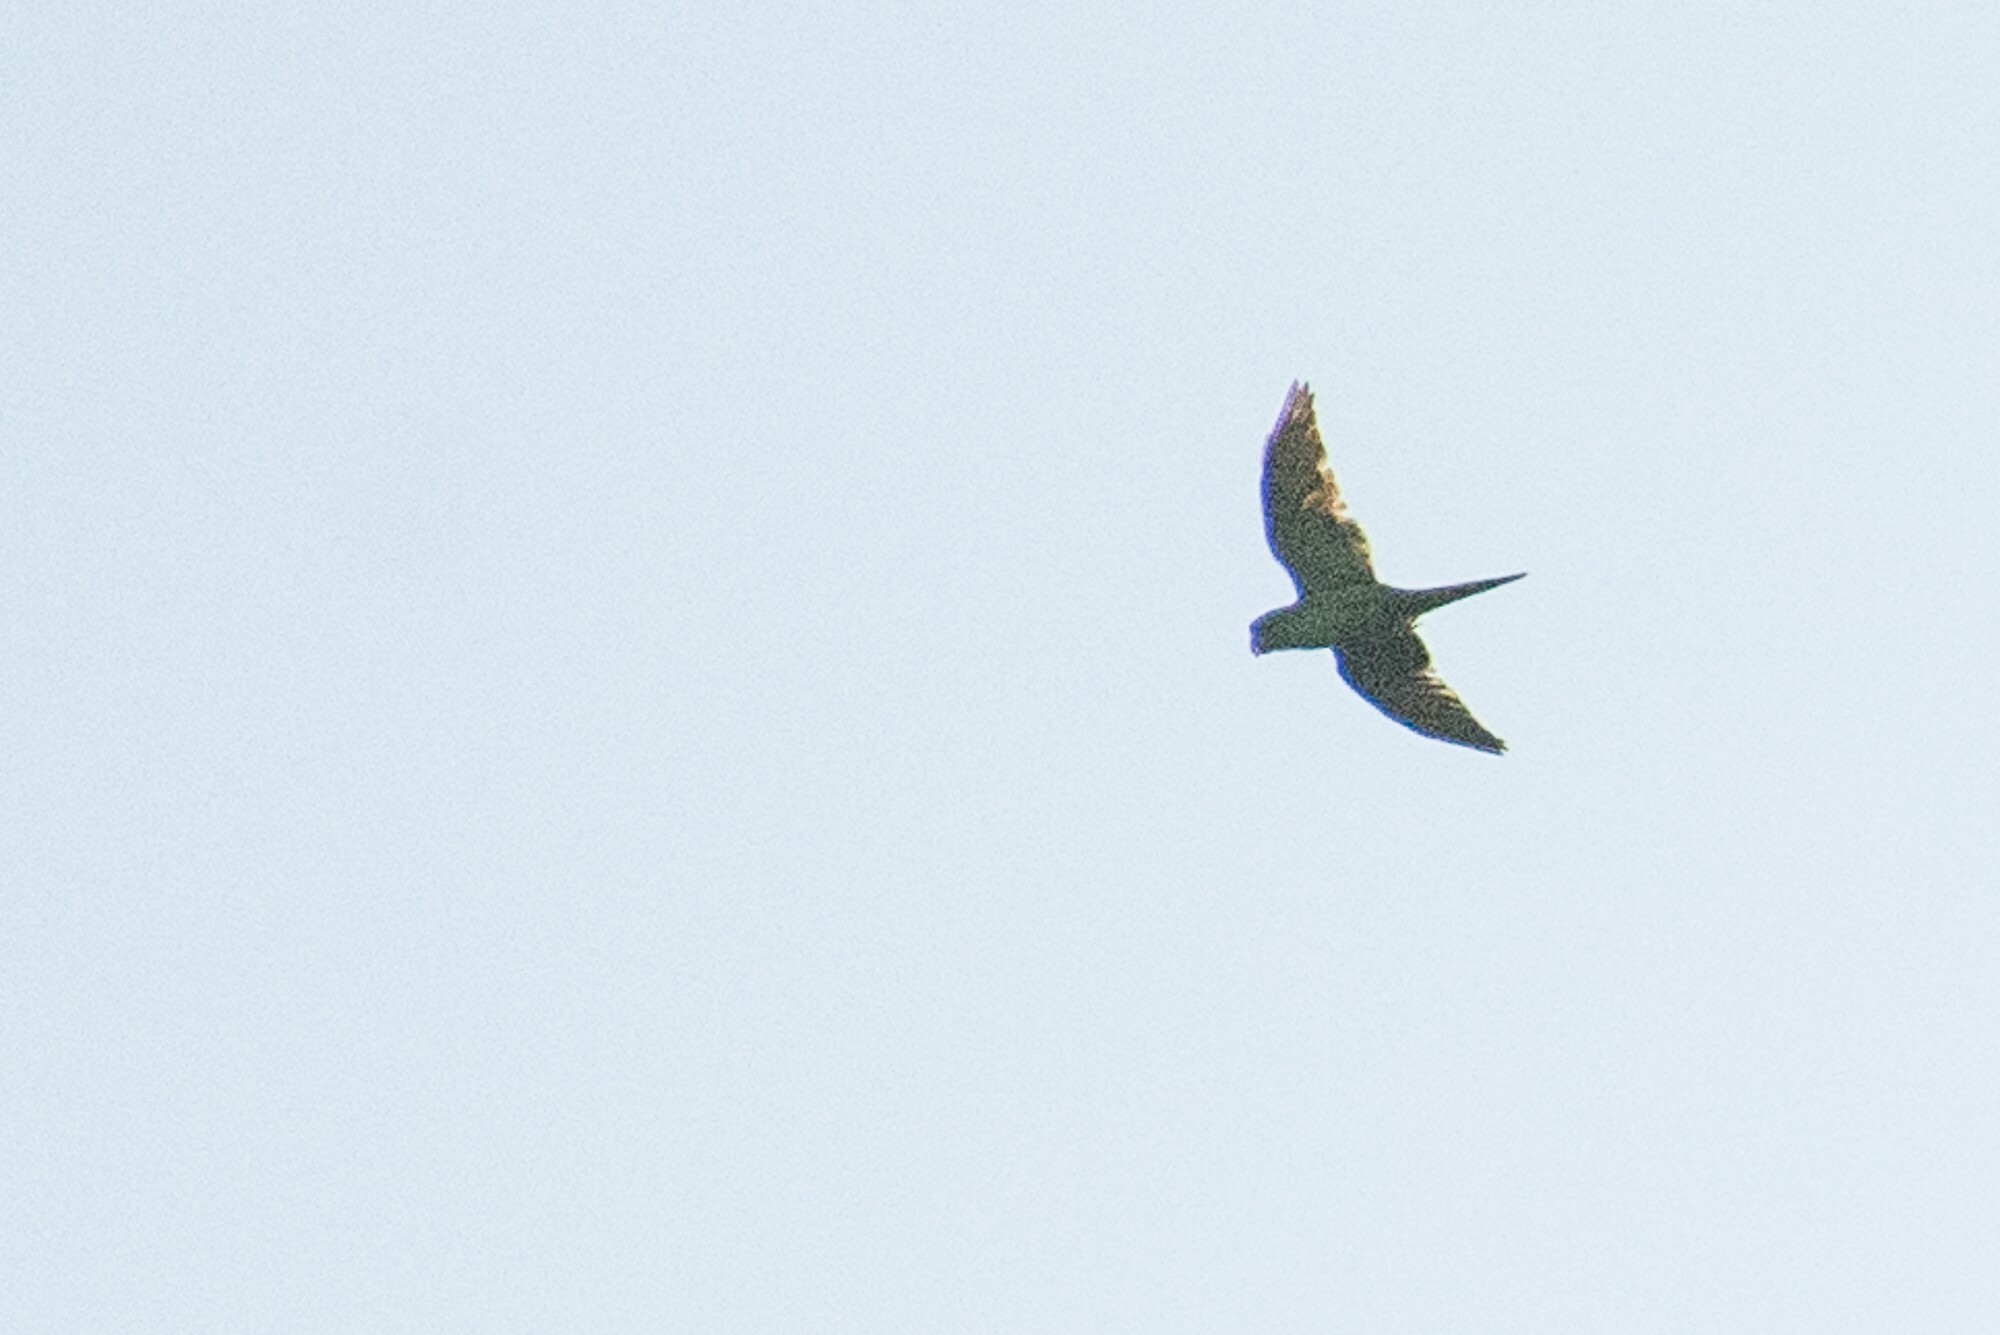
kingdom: Animalia
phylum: Chordata
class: Aves
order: Psittaciformes
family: Psittacidae
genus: Brotogeris
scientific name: Brotogeris chiriri
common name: Yellow-chevroned parakeet
